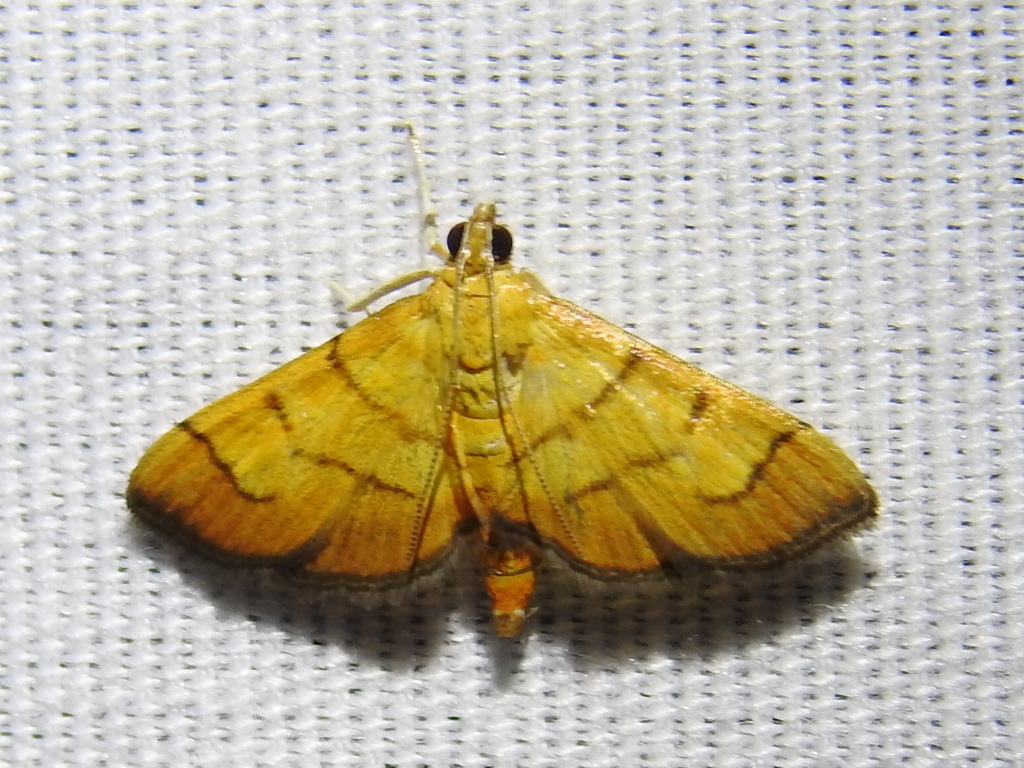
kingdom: Animalia
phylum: Arthropoda
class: Insecta
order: Lepidoptera
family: Crambidae
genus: Salbia
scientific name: Salbia haemorrhoidalis
